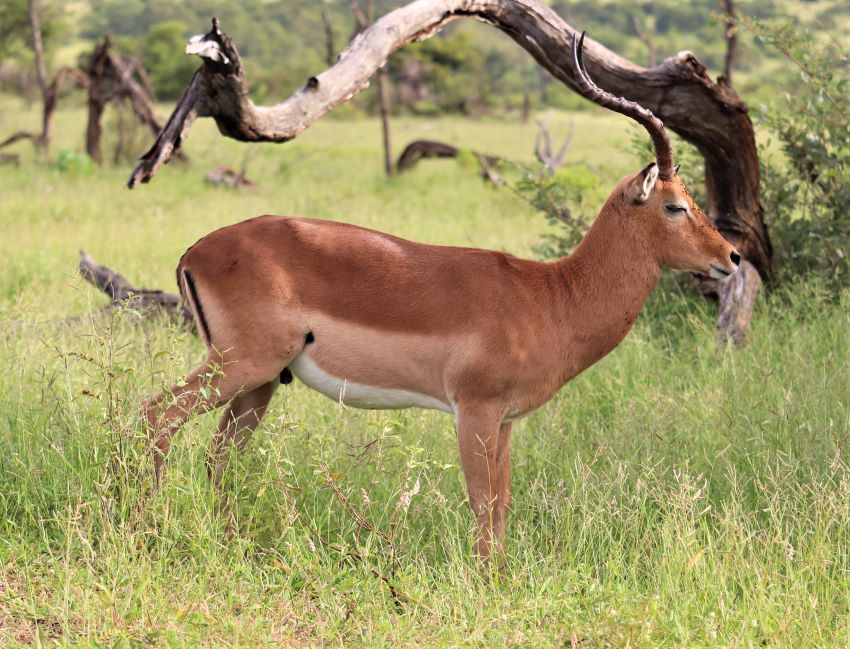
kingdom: Animalia
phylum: Chordata
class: Mammalia
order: Artiodactyla
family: Bovidae
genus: Aepyceros
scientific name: Aepyceros melampus
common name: Impala
